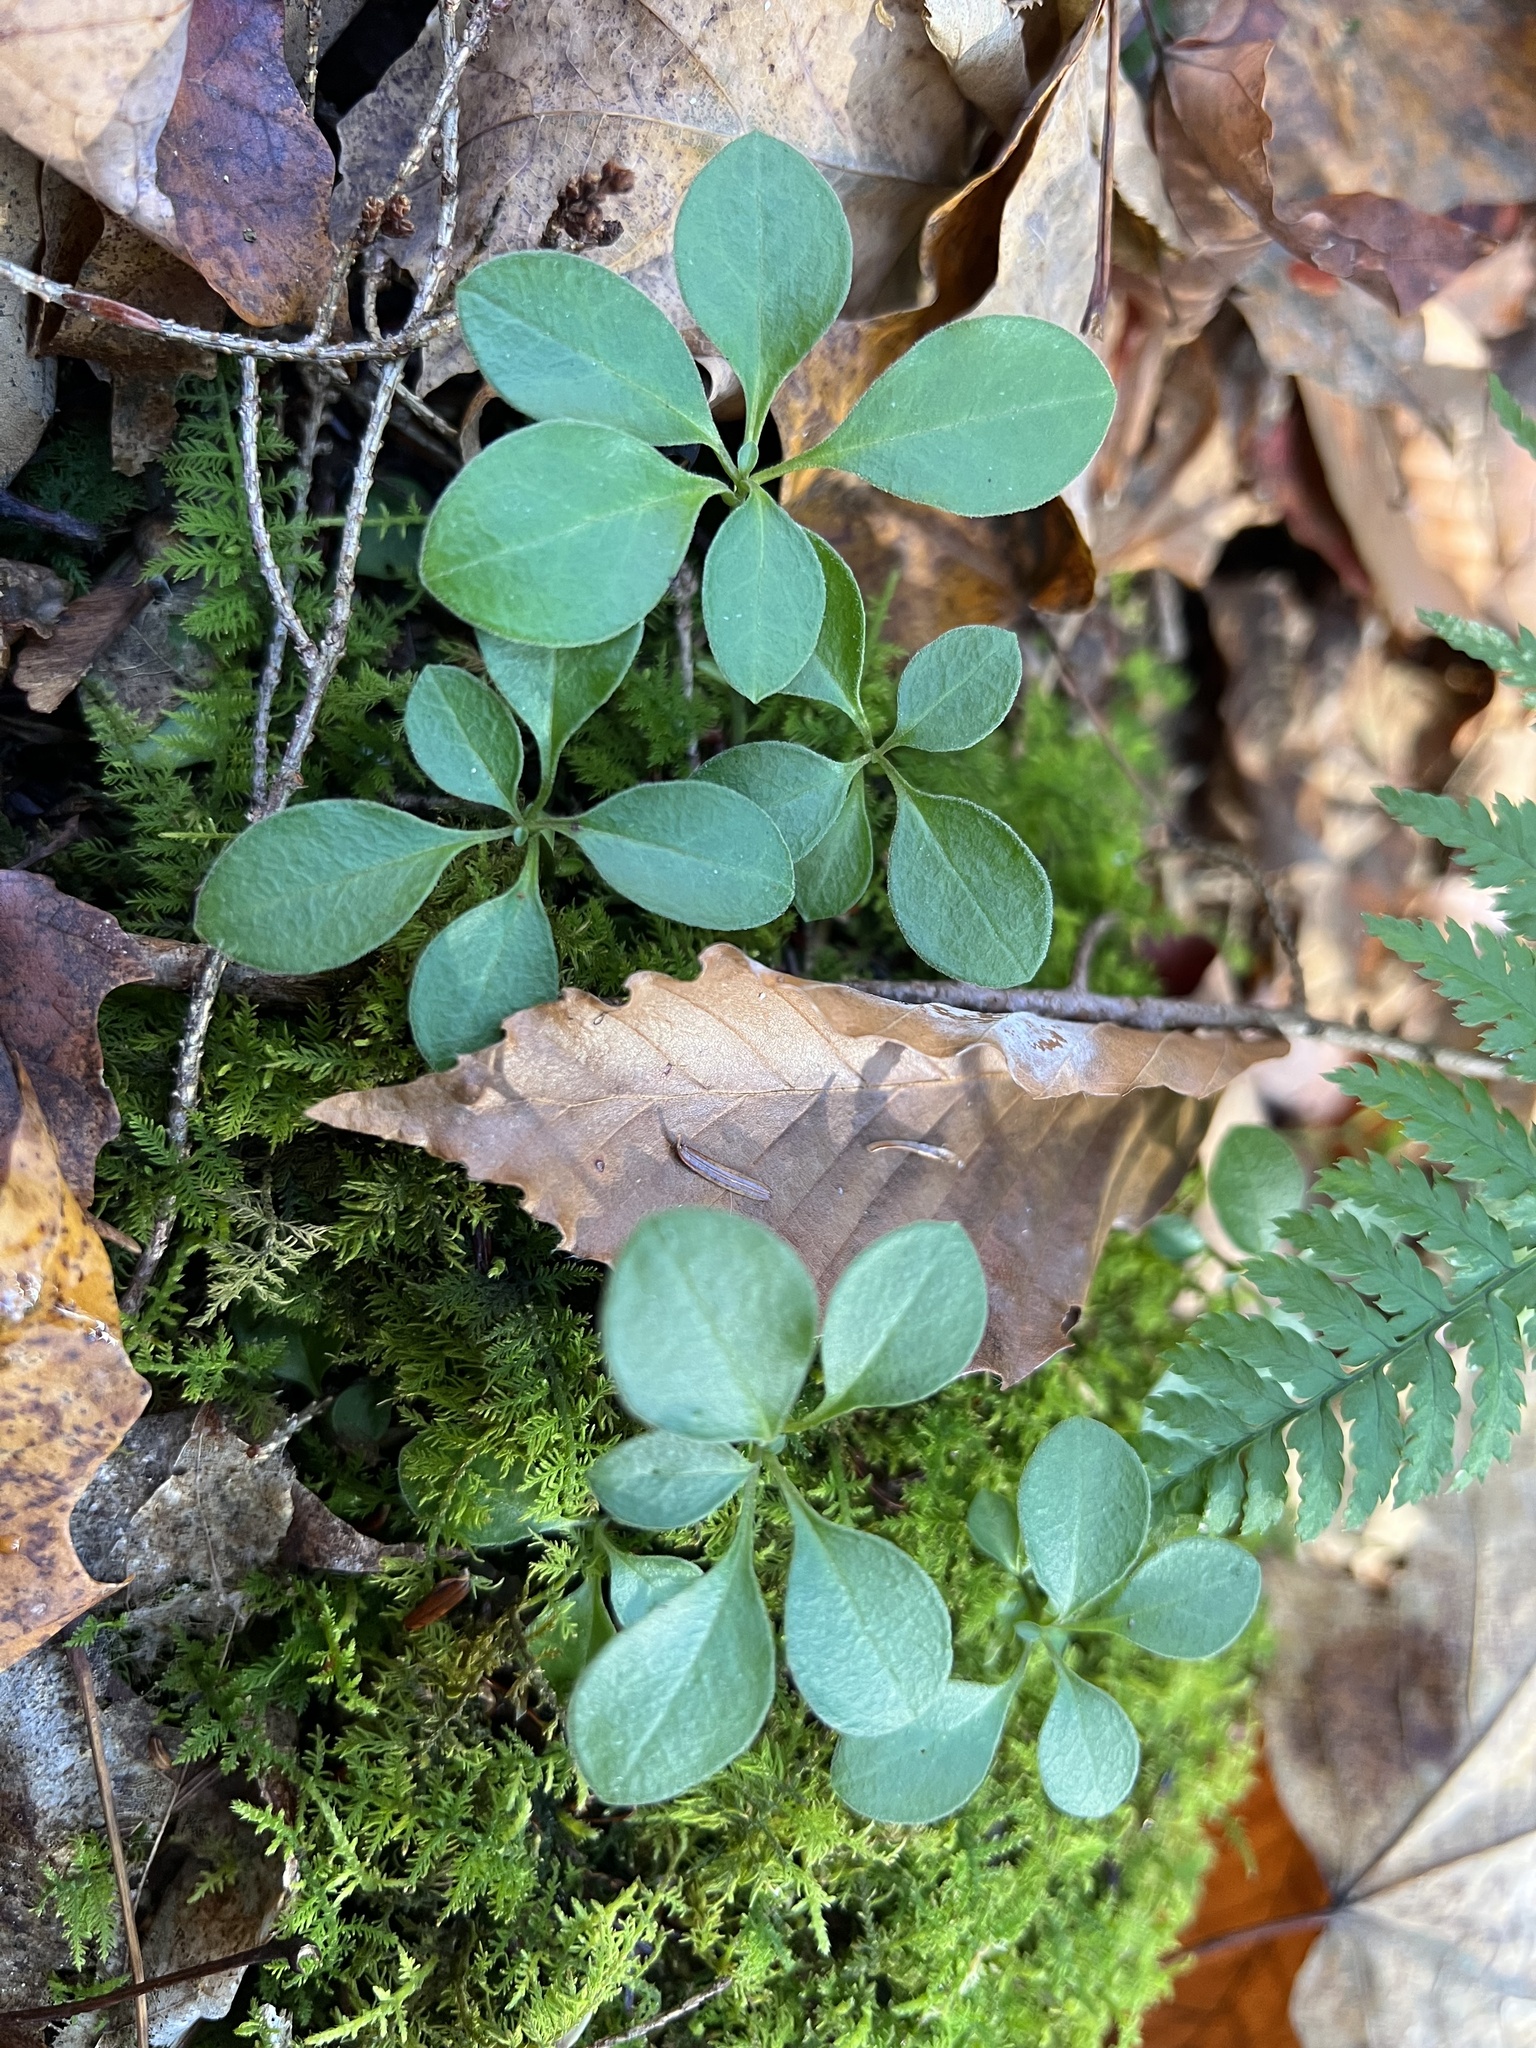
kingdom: Plantae
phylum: Tracheophyta
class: Magnoliopsida
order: Fabales
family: Polygalaceae
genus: Polygaloides
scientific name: Polygaloides paucifolia
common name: Bird-on-the-wing
